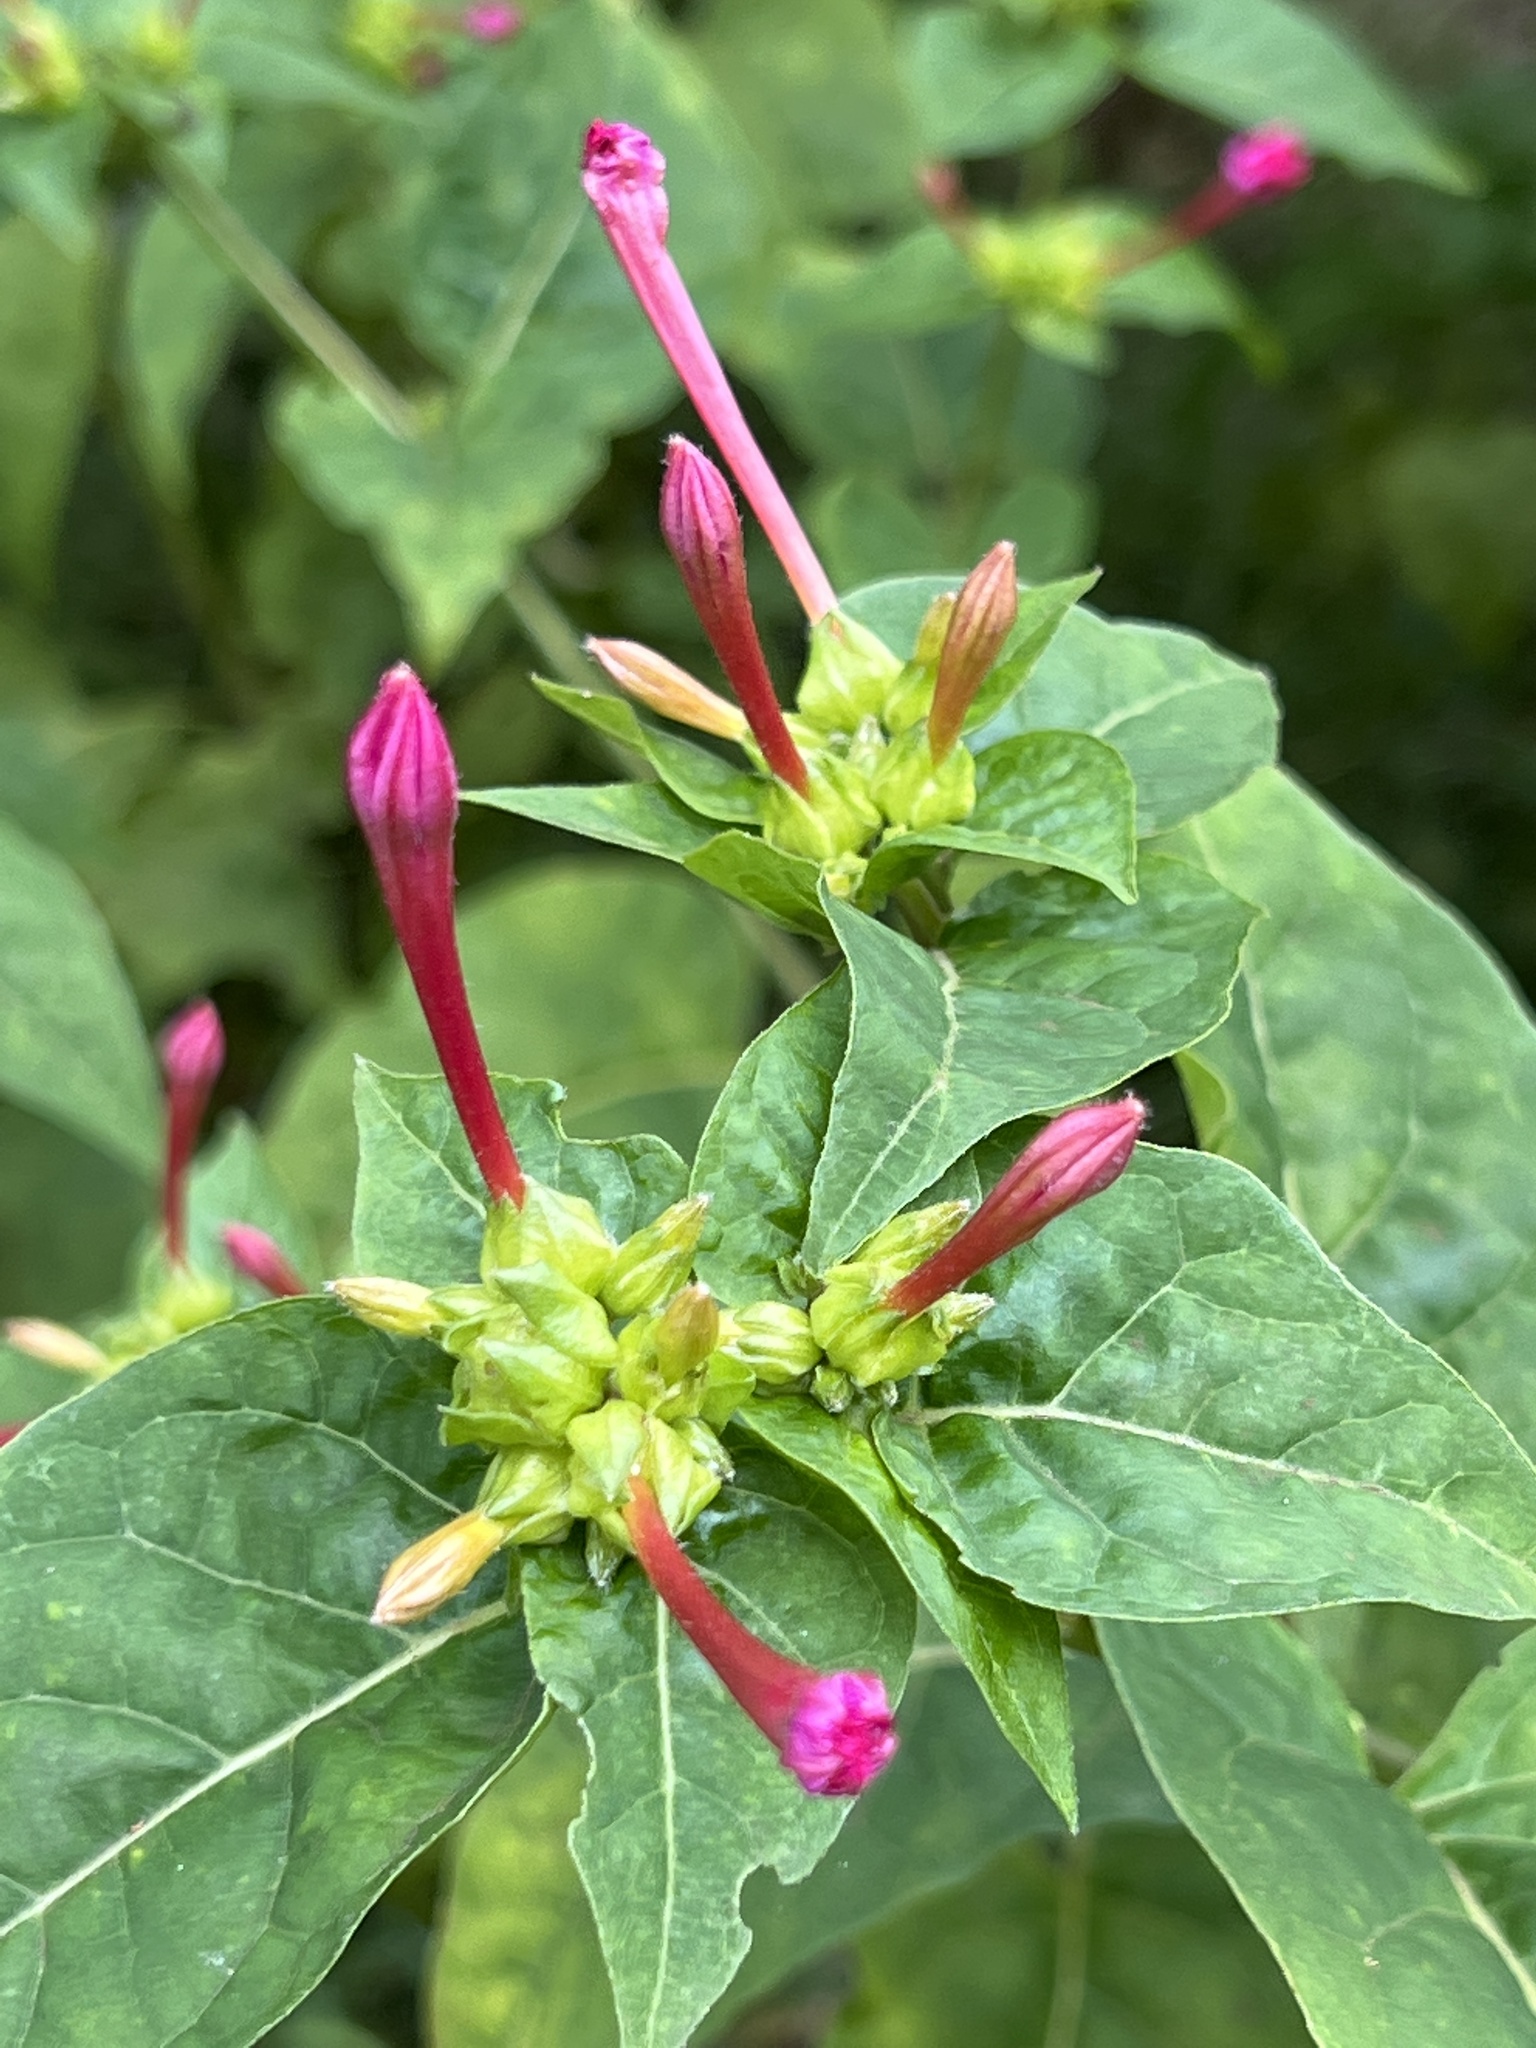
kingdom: Plantae
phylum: Tracheophyta
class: Magnoliopsida
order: Caryophyllales
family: Nyctaginaceae
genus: Mirabilis
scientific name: Mirabilis jalapa
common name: Marvel-of-peru
